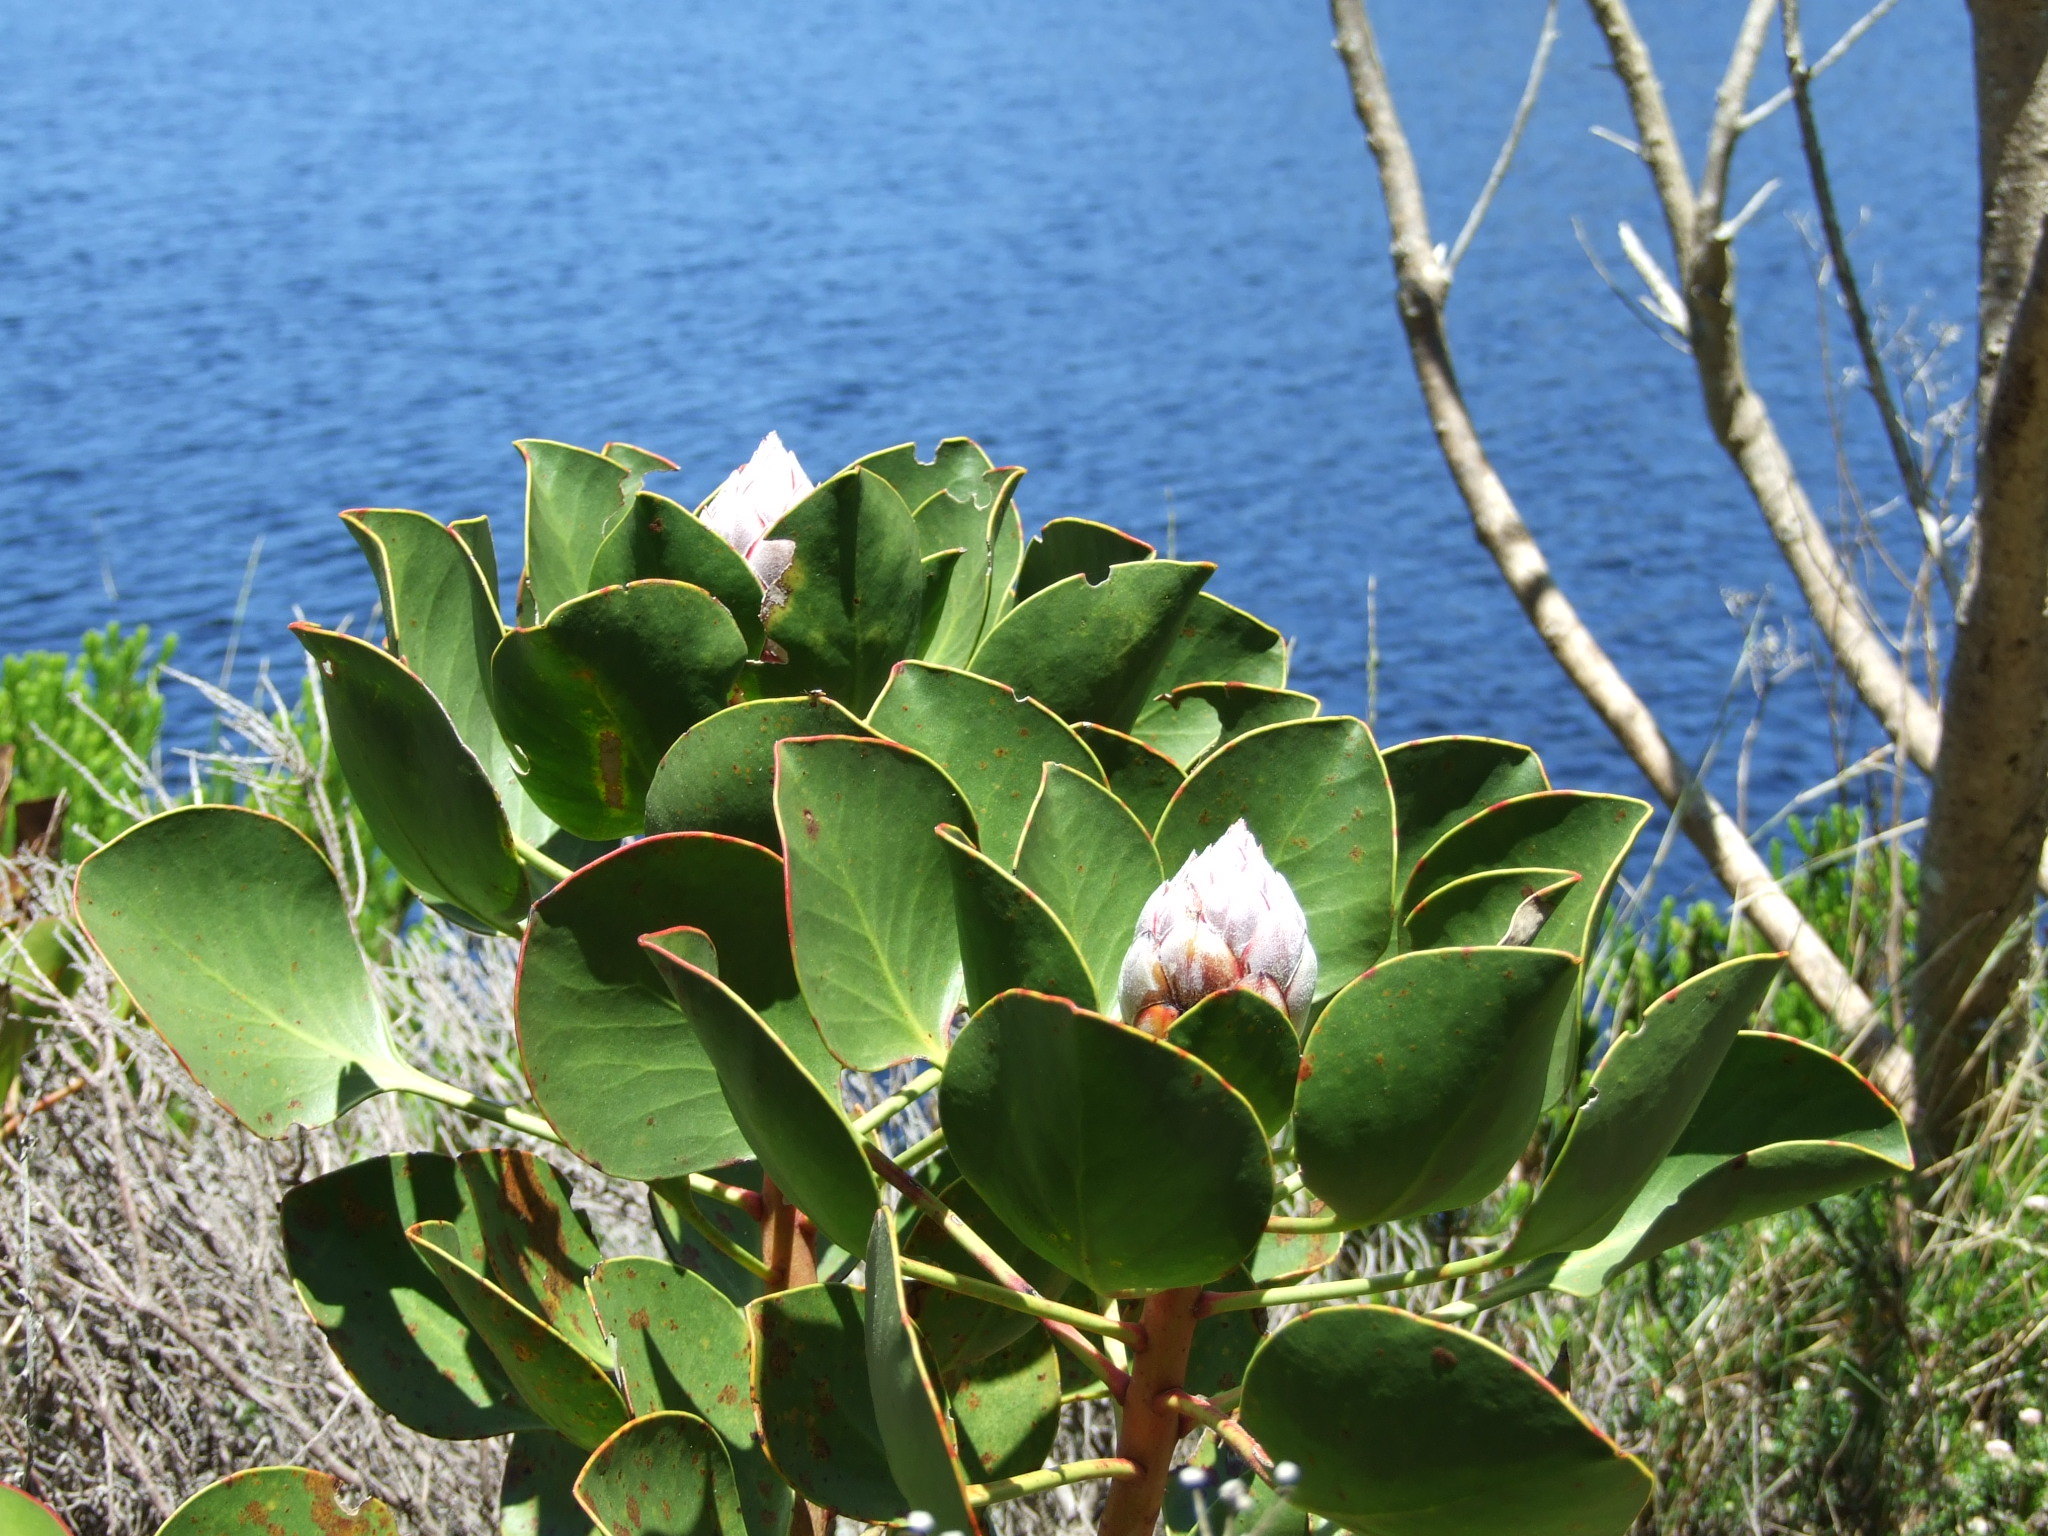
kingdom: Plantae
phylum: Tracheophyta
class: Magnoliopsida
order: Proteales
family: Proteaceae
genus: Protea
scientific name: Protea cynaroides
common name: King protea
